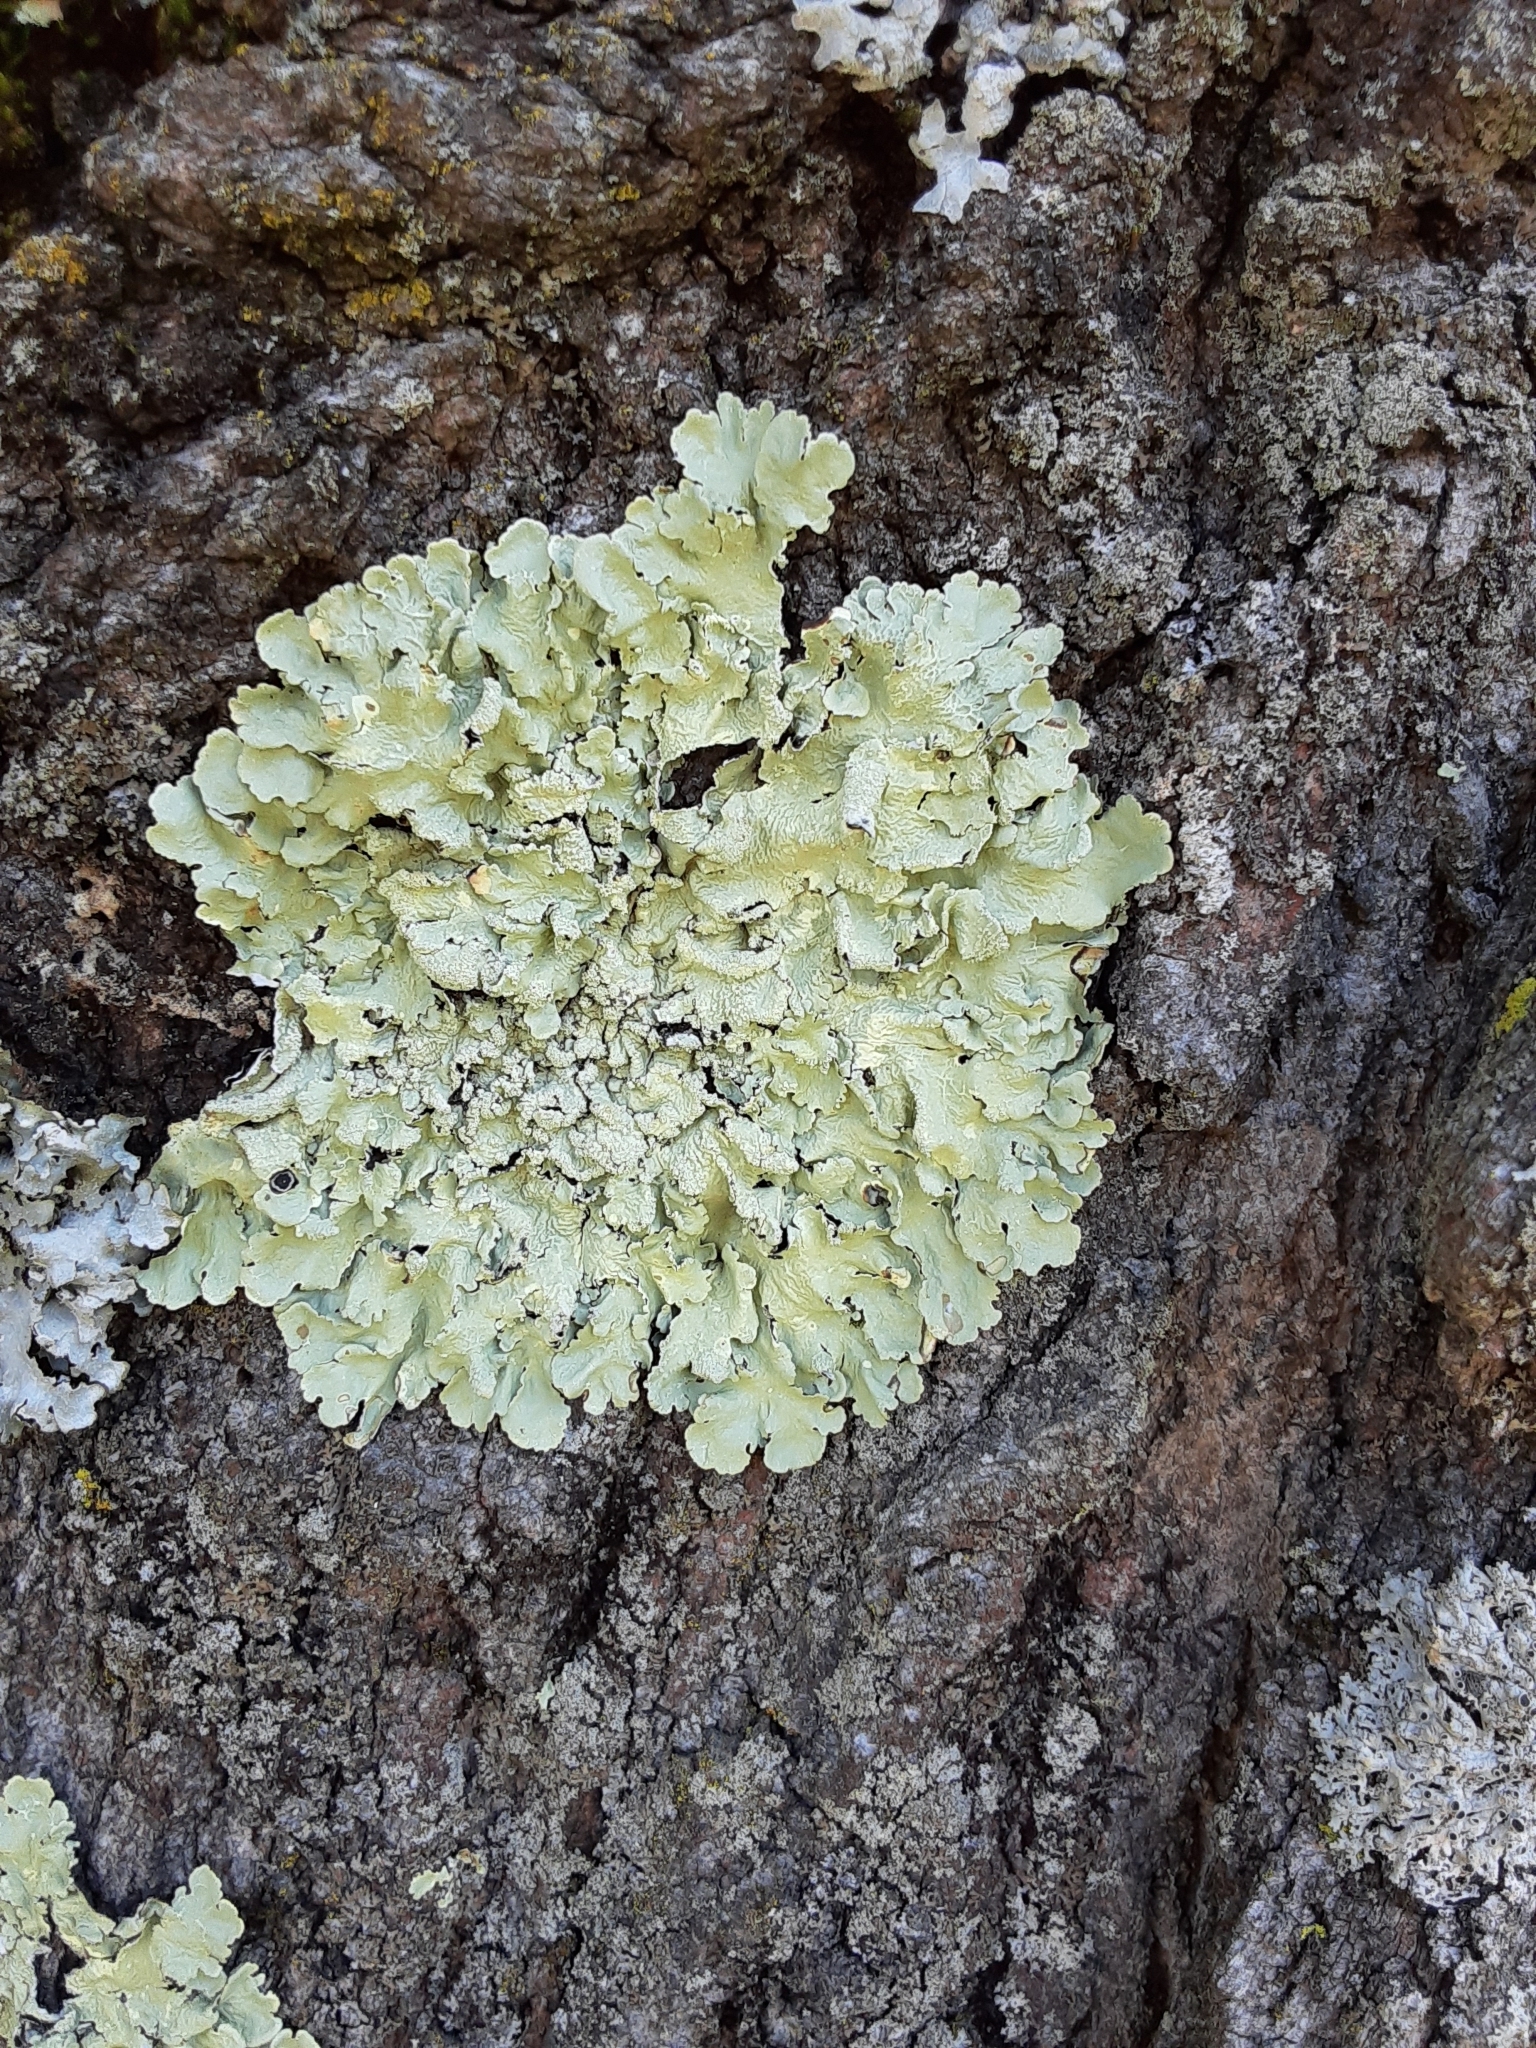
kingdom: Fungi
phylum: Ascomycota
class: Lecanoromycetes
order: Lecanorales
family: Parmeliaceae
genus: Flavoparmelia
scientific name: Flavoparmelia caperata
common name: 40-mile per hour lichen
